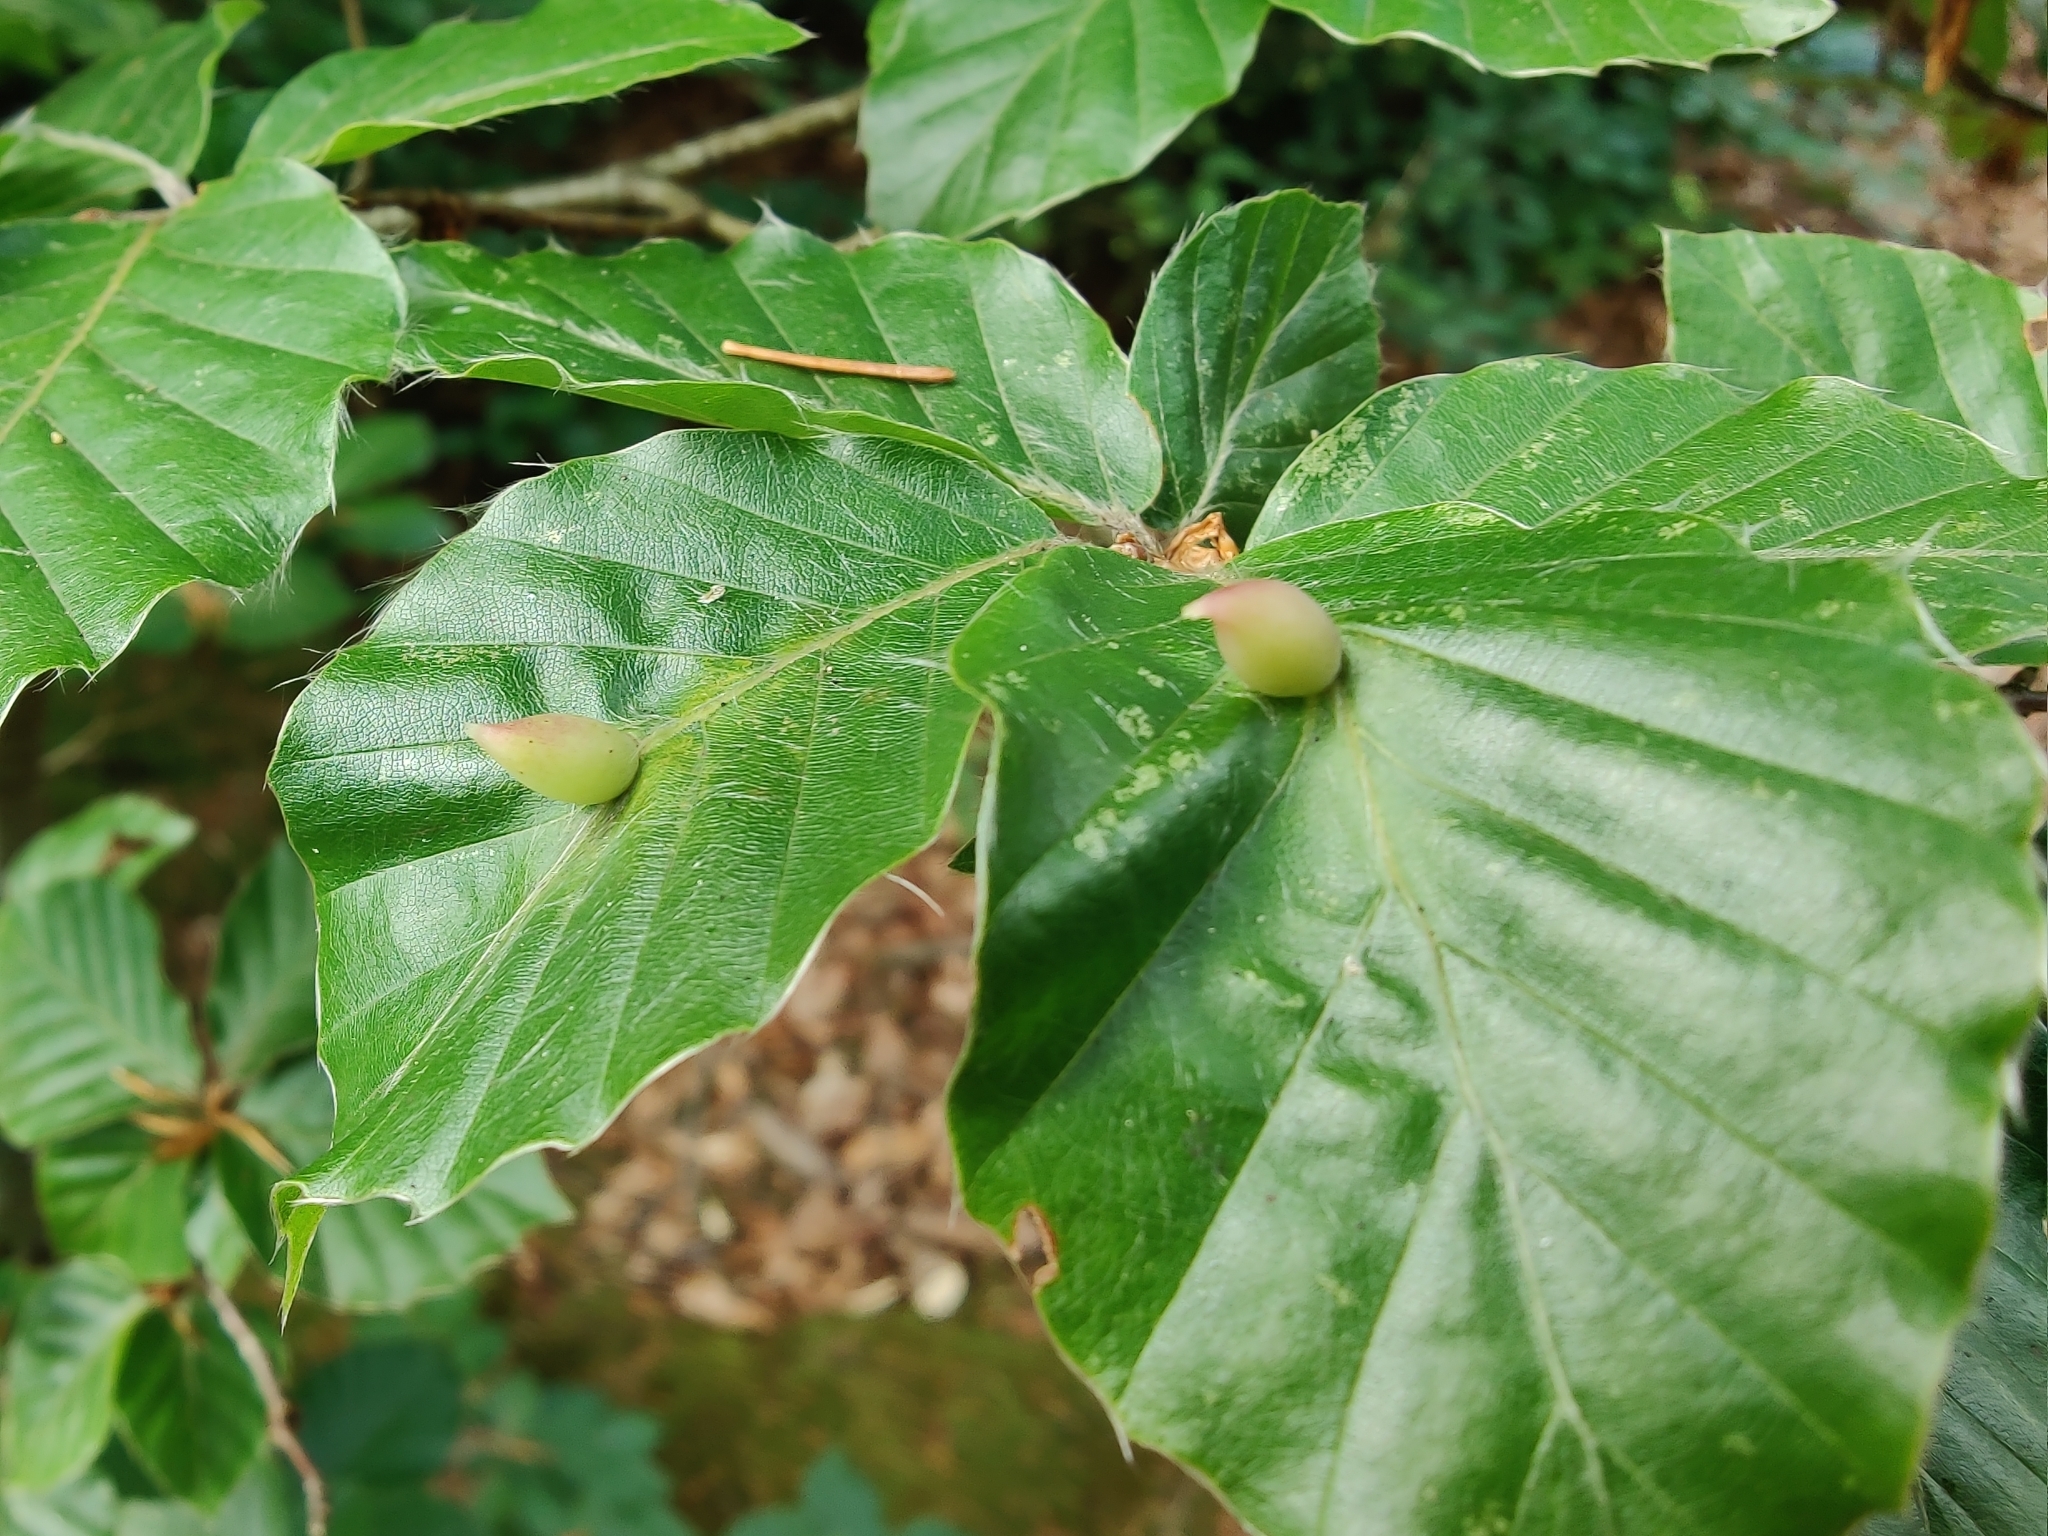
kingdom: Animalia
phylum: Arthropoda
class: Insecta
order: Diptera
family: Cecidomyiidae
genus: Mikiola
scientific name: Mikiola fagi
